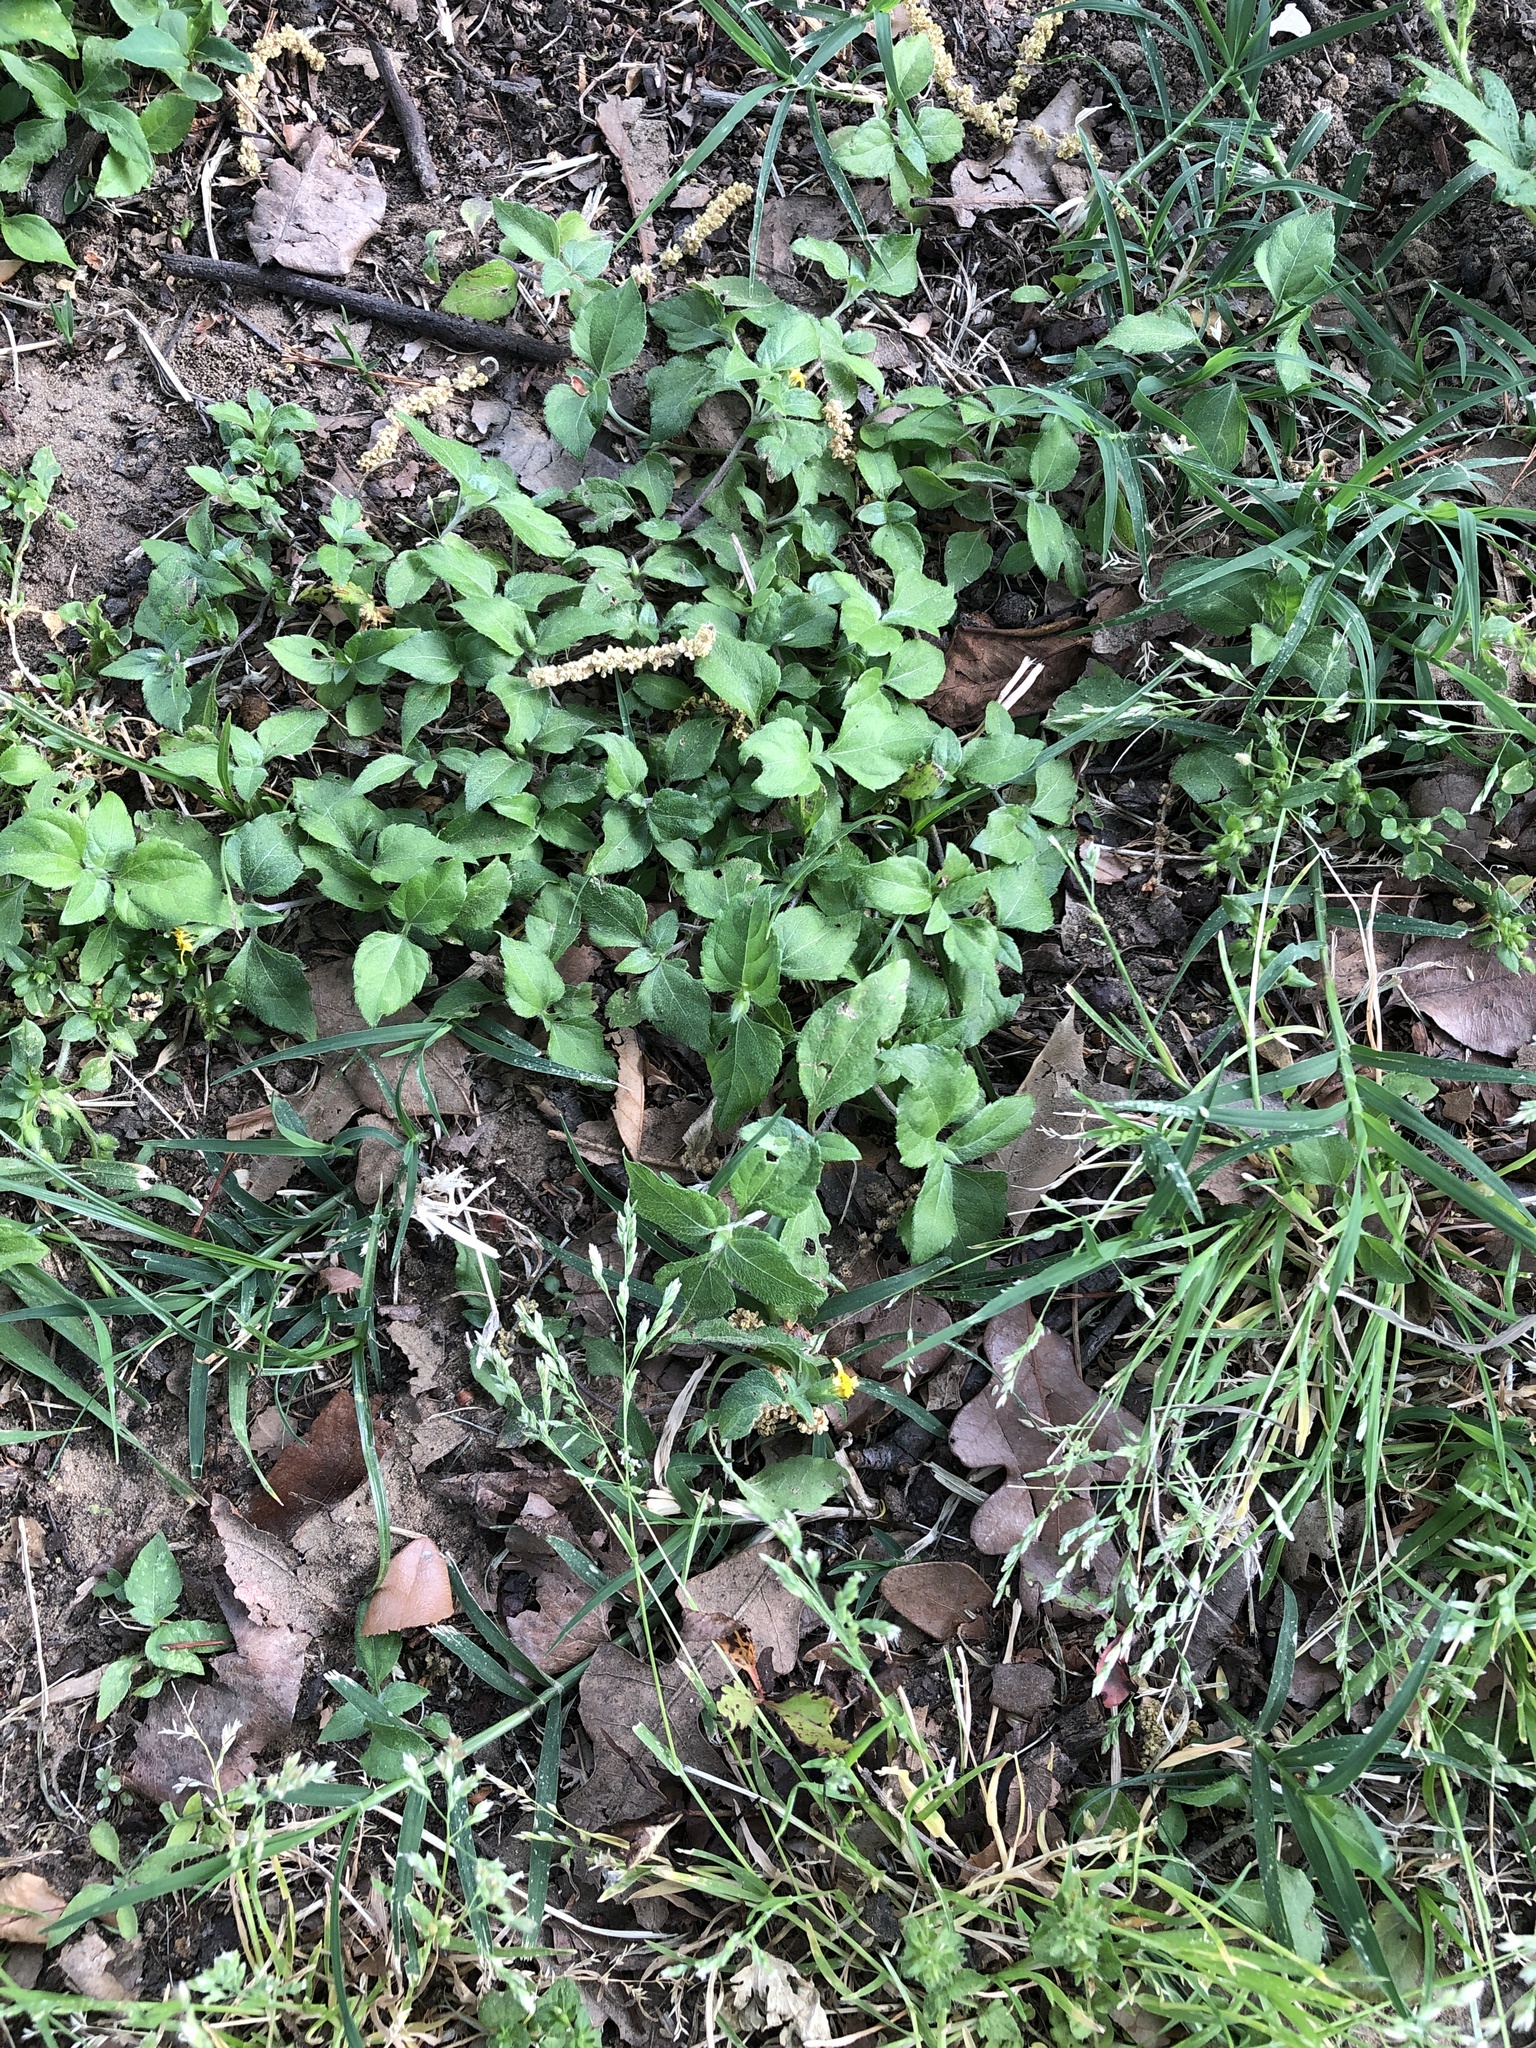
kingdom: Plantae
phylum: Tracheophyta
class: Magnoliopsida
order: Asterales
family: Asteraceae
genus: Calyptocarpus
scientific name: Calyptocarpus vialis
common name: Straggler daisy
